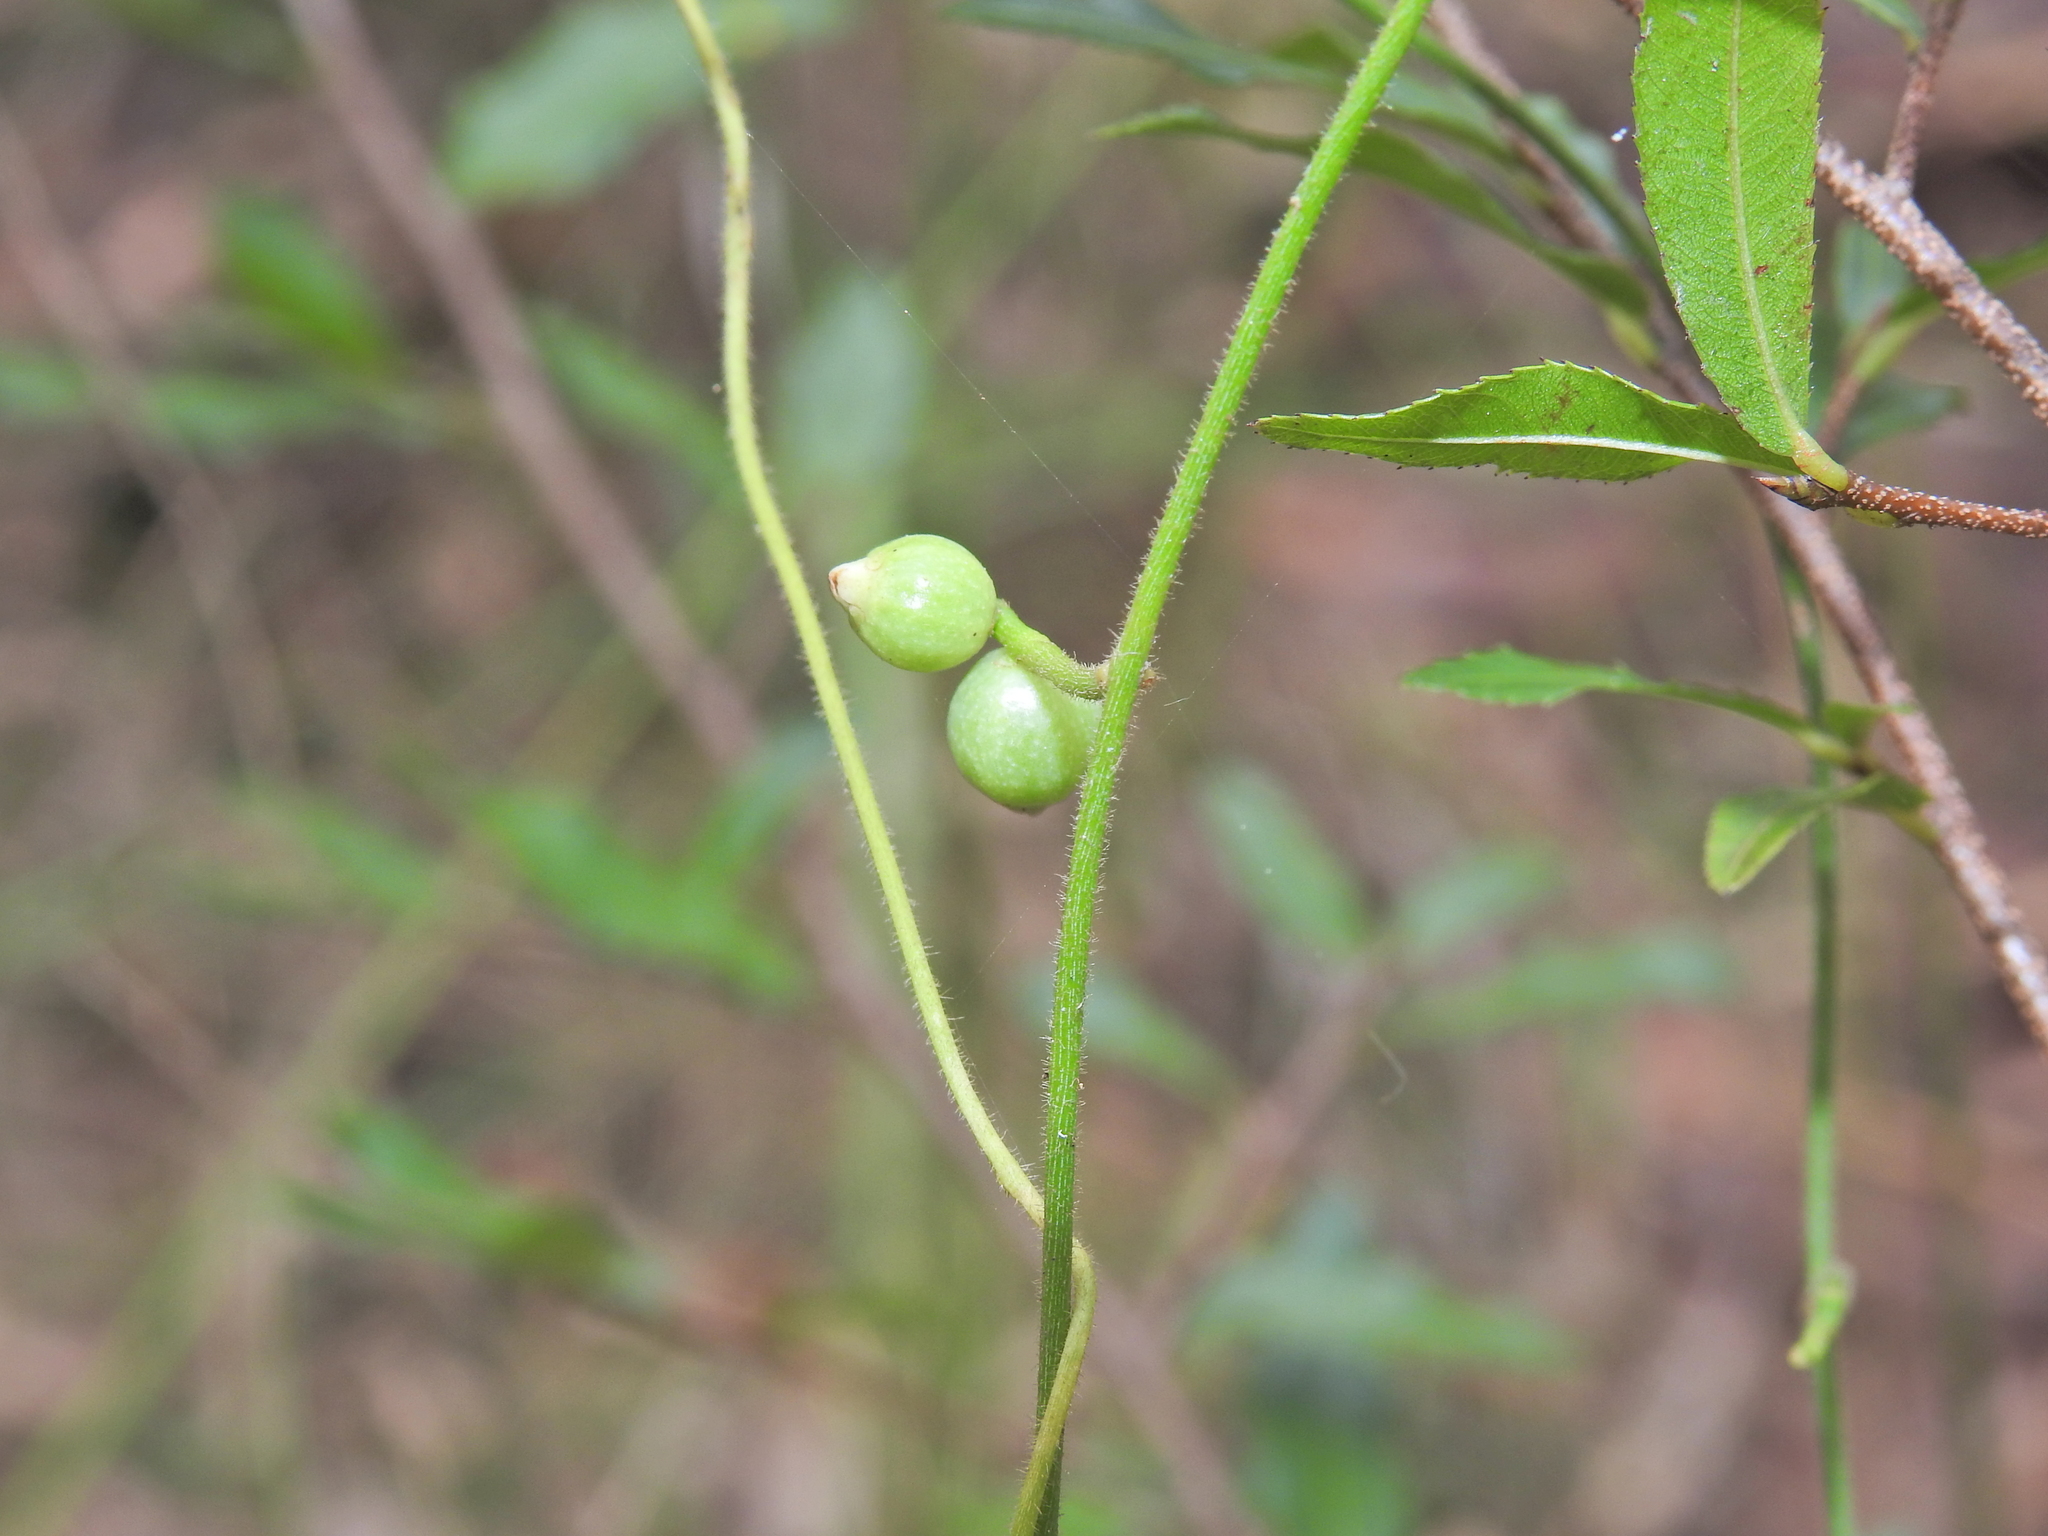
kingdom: Plantae
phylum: Tracheophyta
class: Magnoliopsida
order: Laurales
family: Lauraceae
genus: Cassytha
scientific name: Cassytha filiformis
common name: Dodder-laurel
